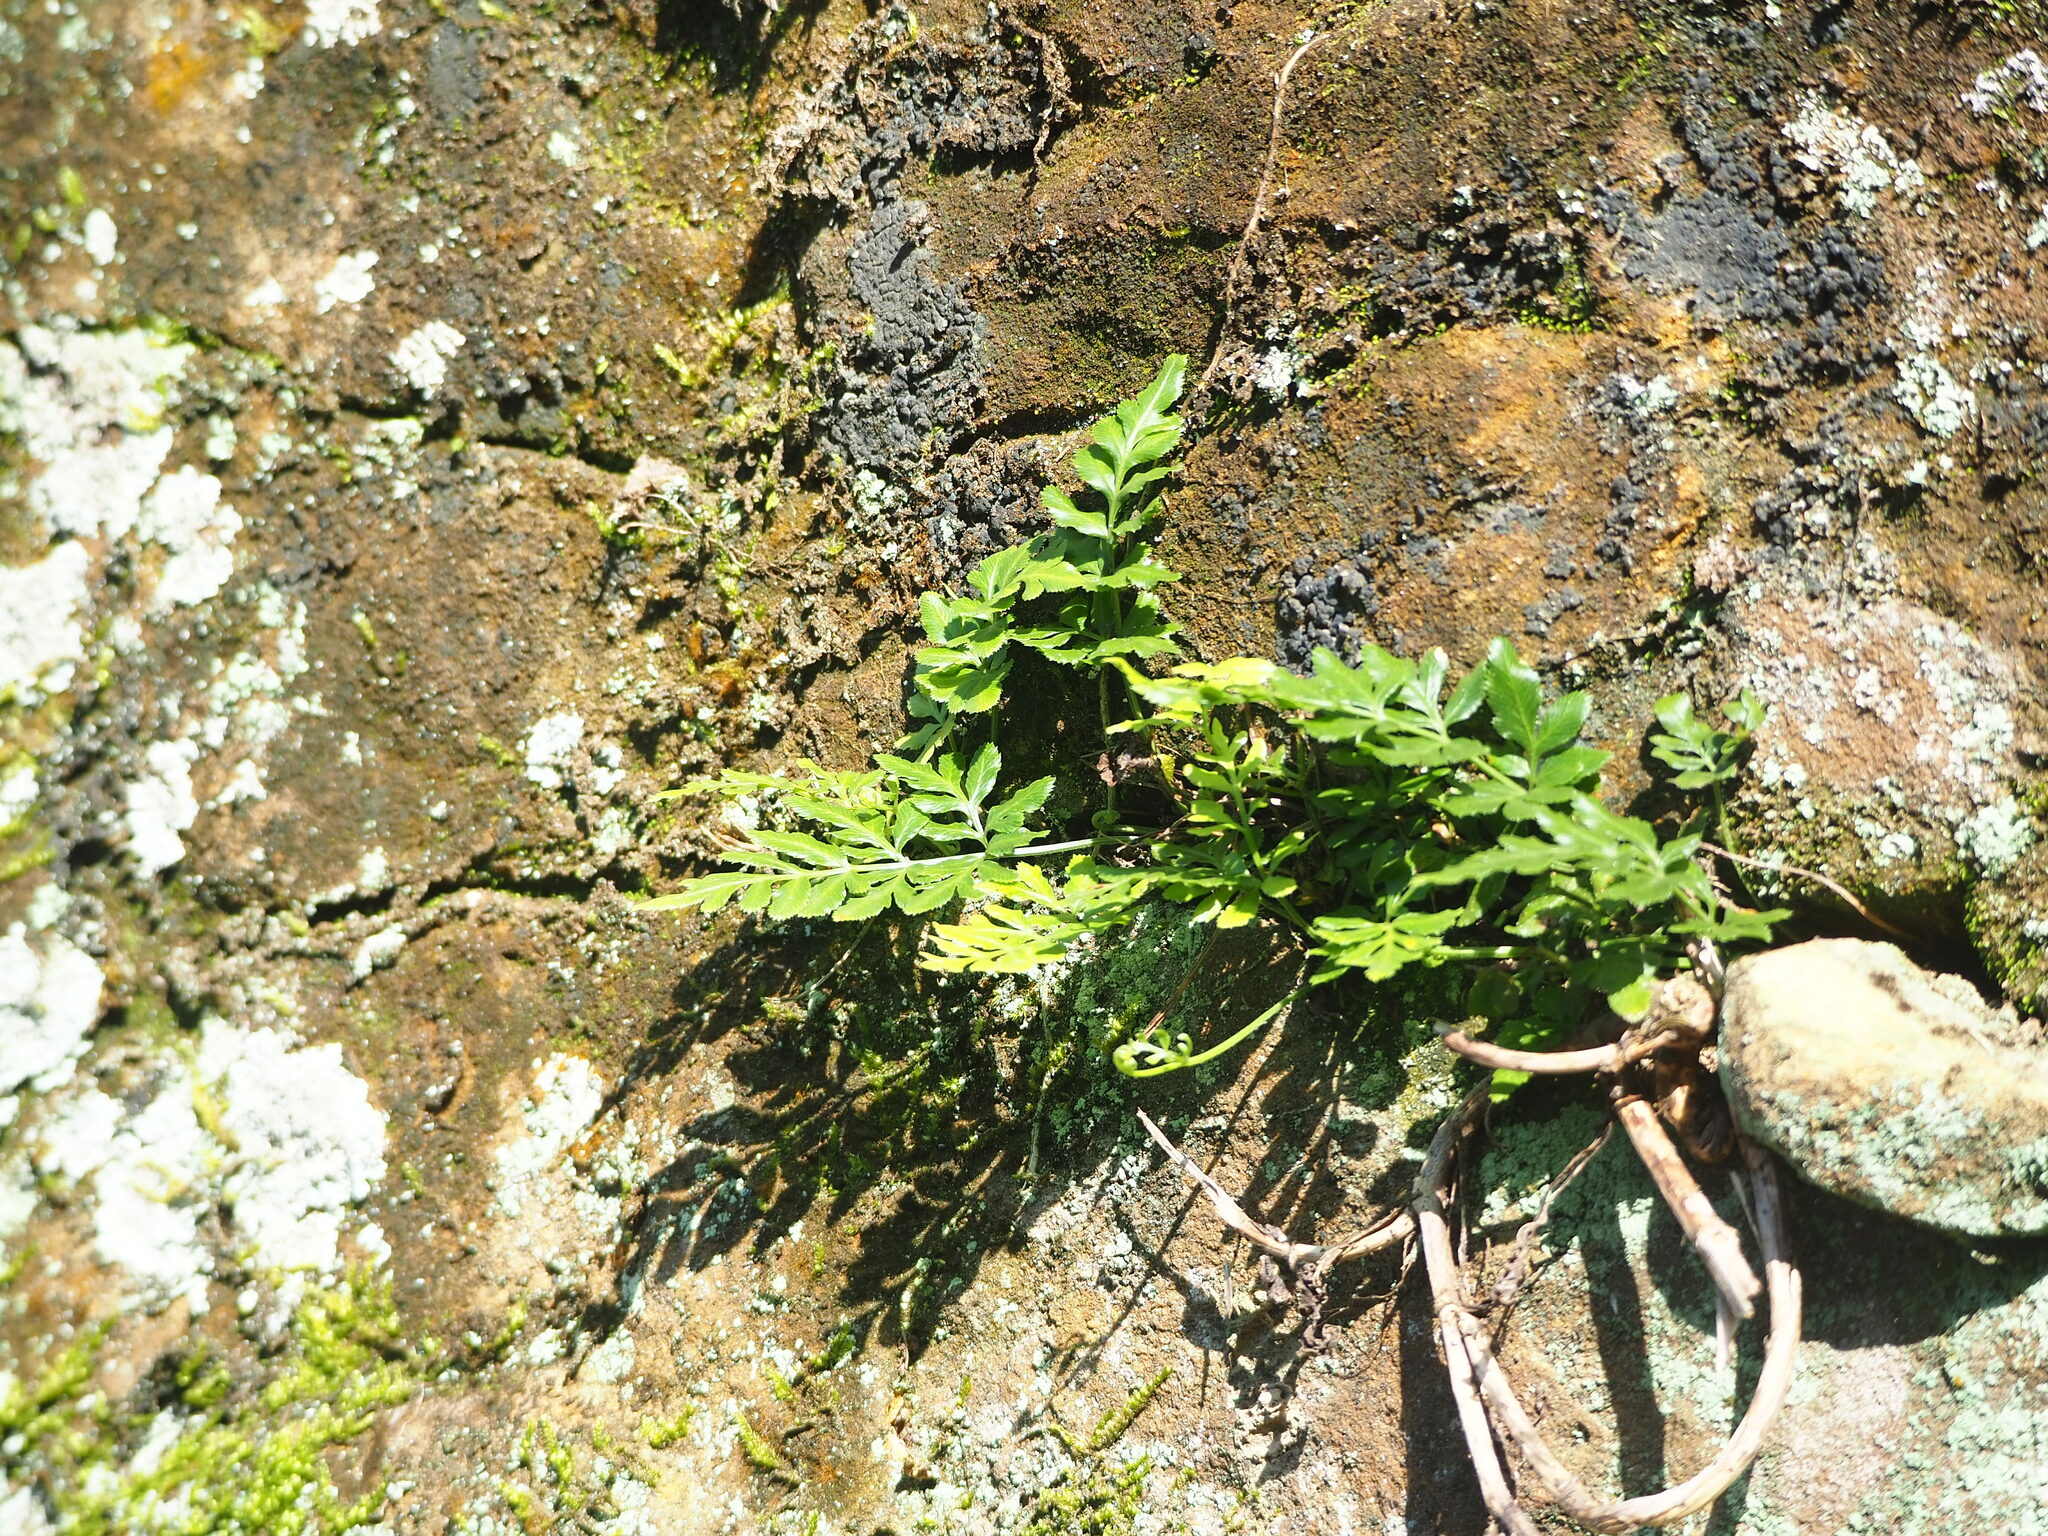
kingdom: Plantae
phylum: Tracheophyta
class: Polypodiopsida
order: Polypodiales
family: Pteridaceae
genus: Pteris
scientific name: Pteris ensiformis
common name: Sword brake
